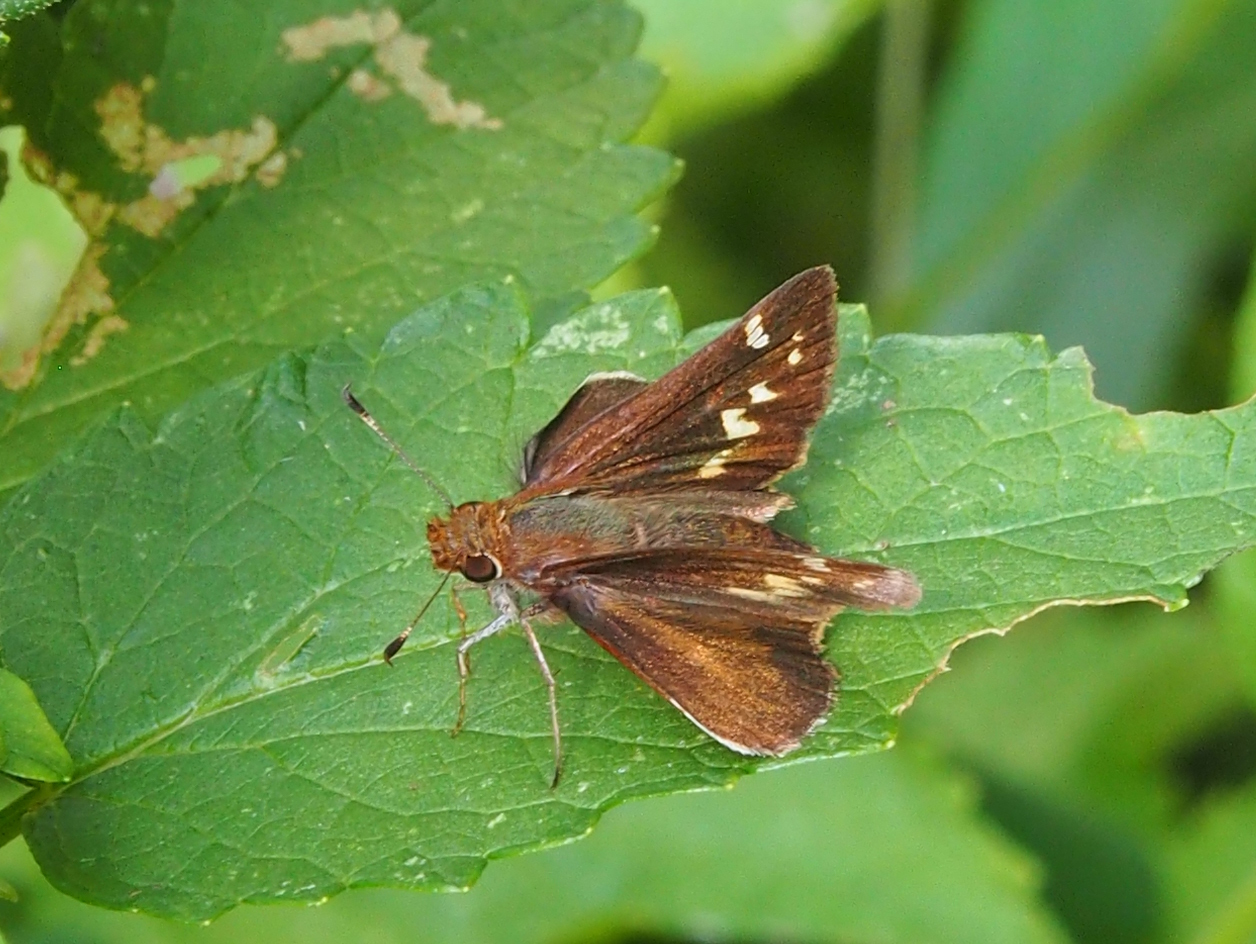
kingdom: Animalia
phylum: Arthropoda
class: Insecta
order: Lepidoptera
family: Hesperiidae
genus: Lon
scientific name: Lon zabulon
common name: Zabulon skipper
